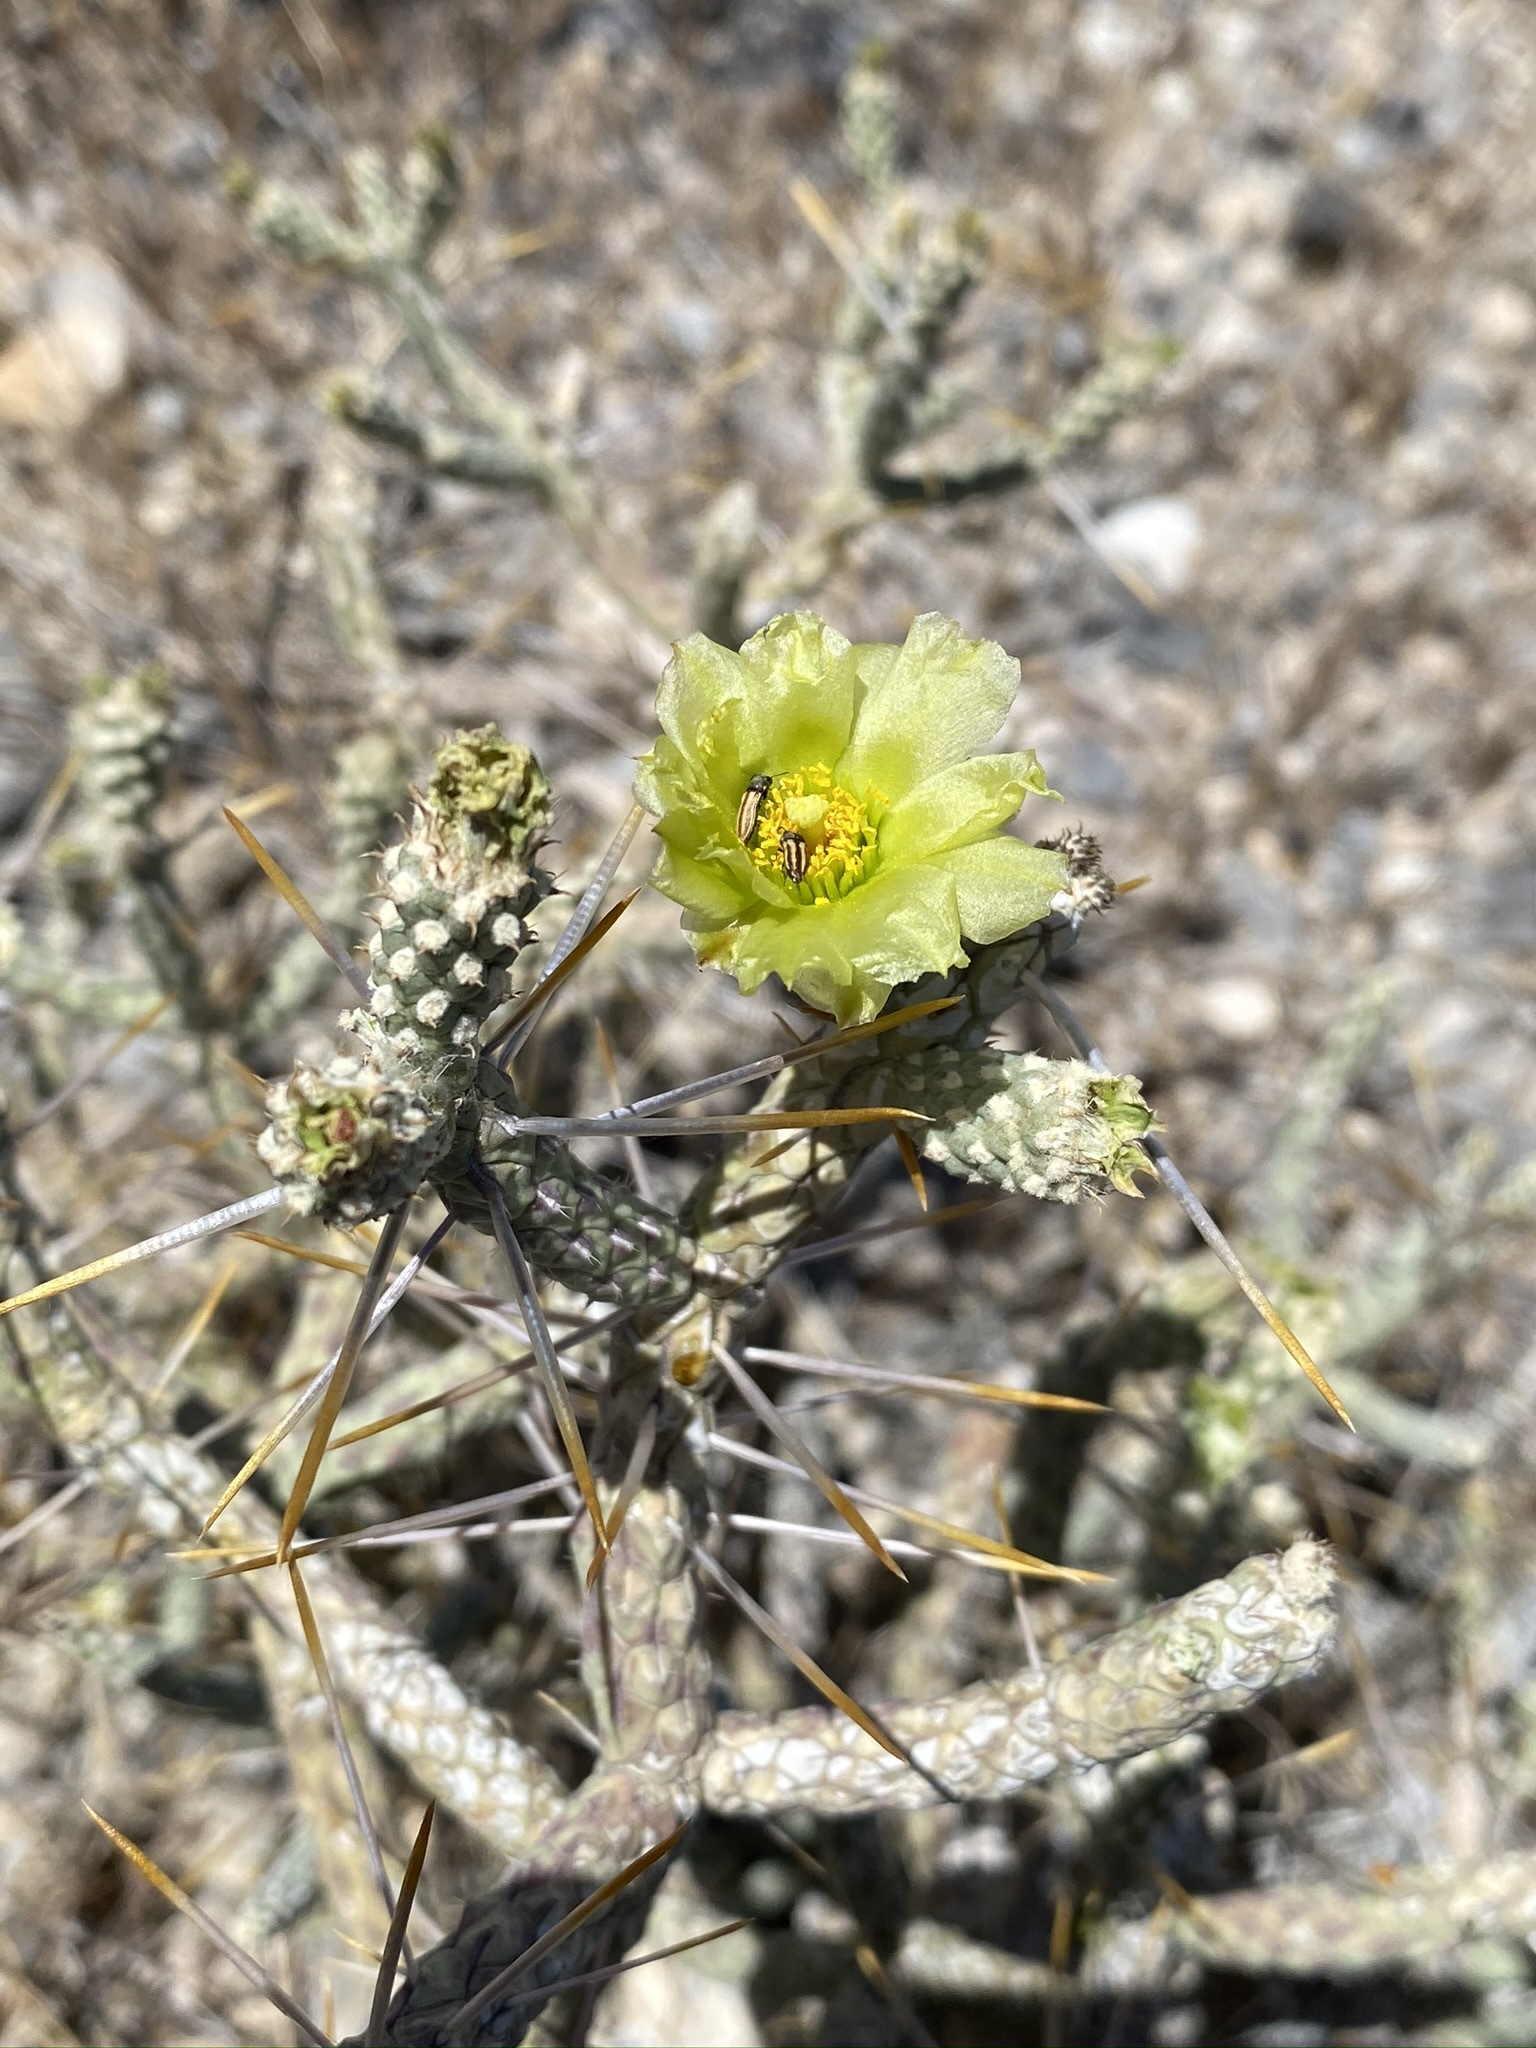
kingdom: Plantae
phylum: Tracheophyta
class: Magnoliopsida
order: Caryophyllales
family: Cactaceae
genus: Cylindropuntia
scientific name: Cylindropuntia ramosissima
